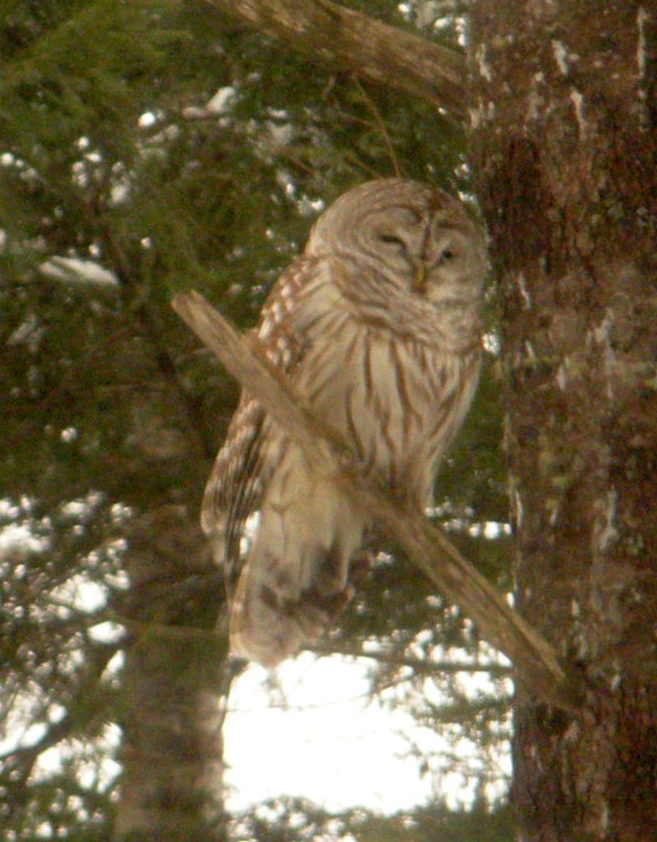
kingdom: Animalia
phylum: Chordata
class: Aves
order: Strigiformes
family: Strigidae
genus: Strix
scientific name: Strix varia
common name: Barred owl
